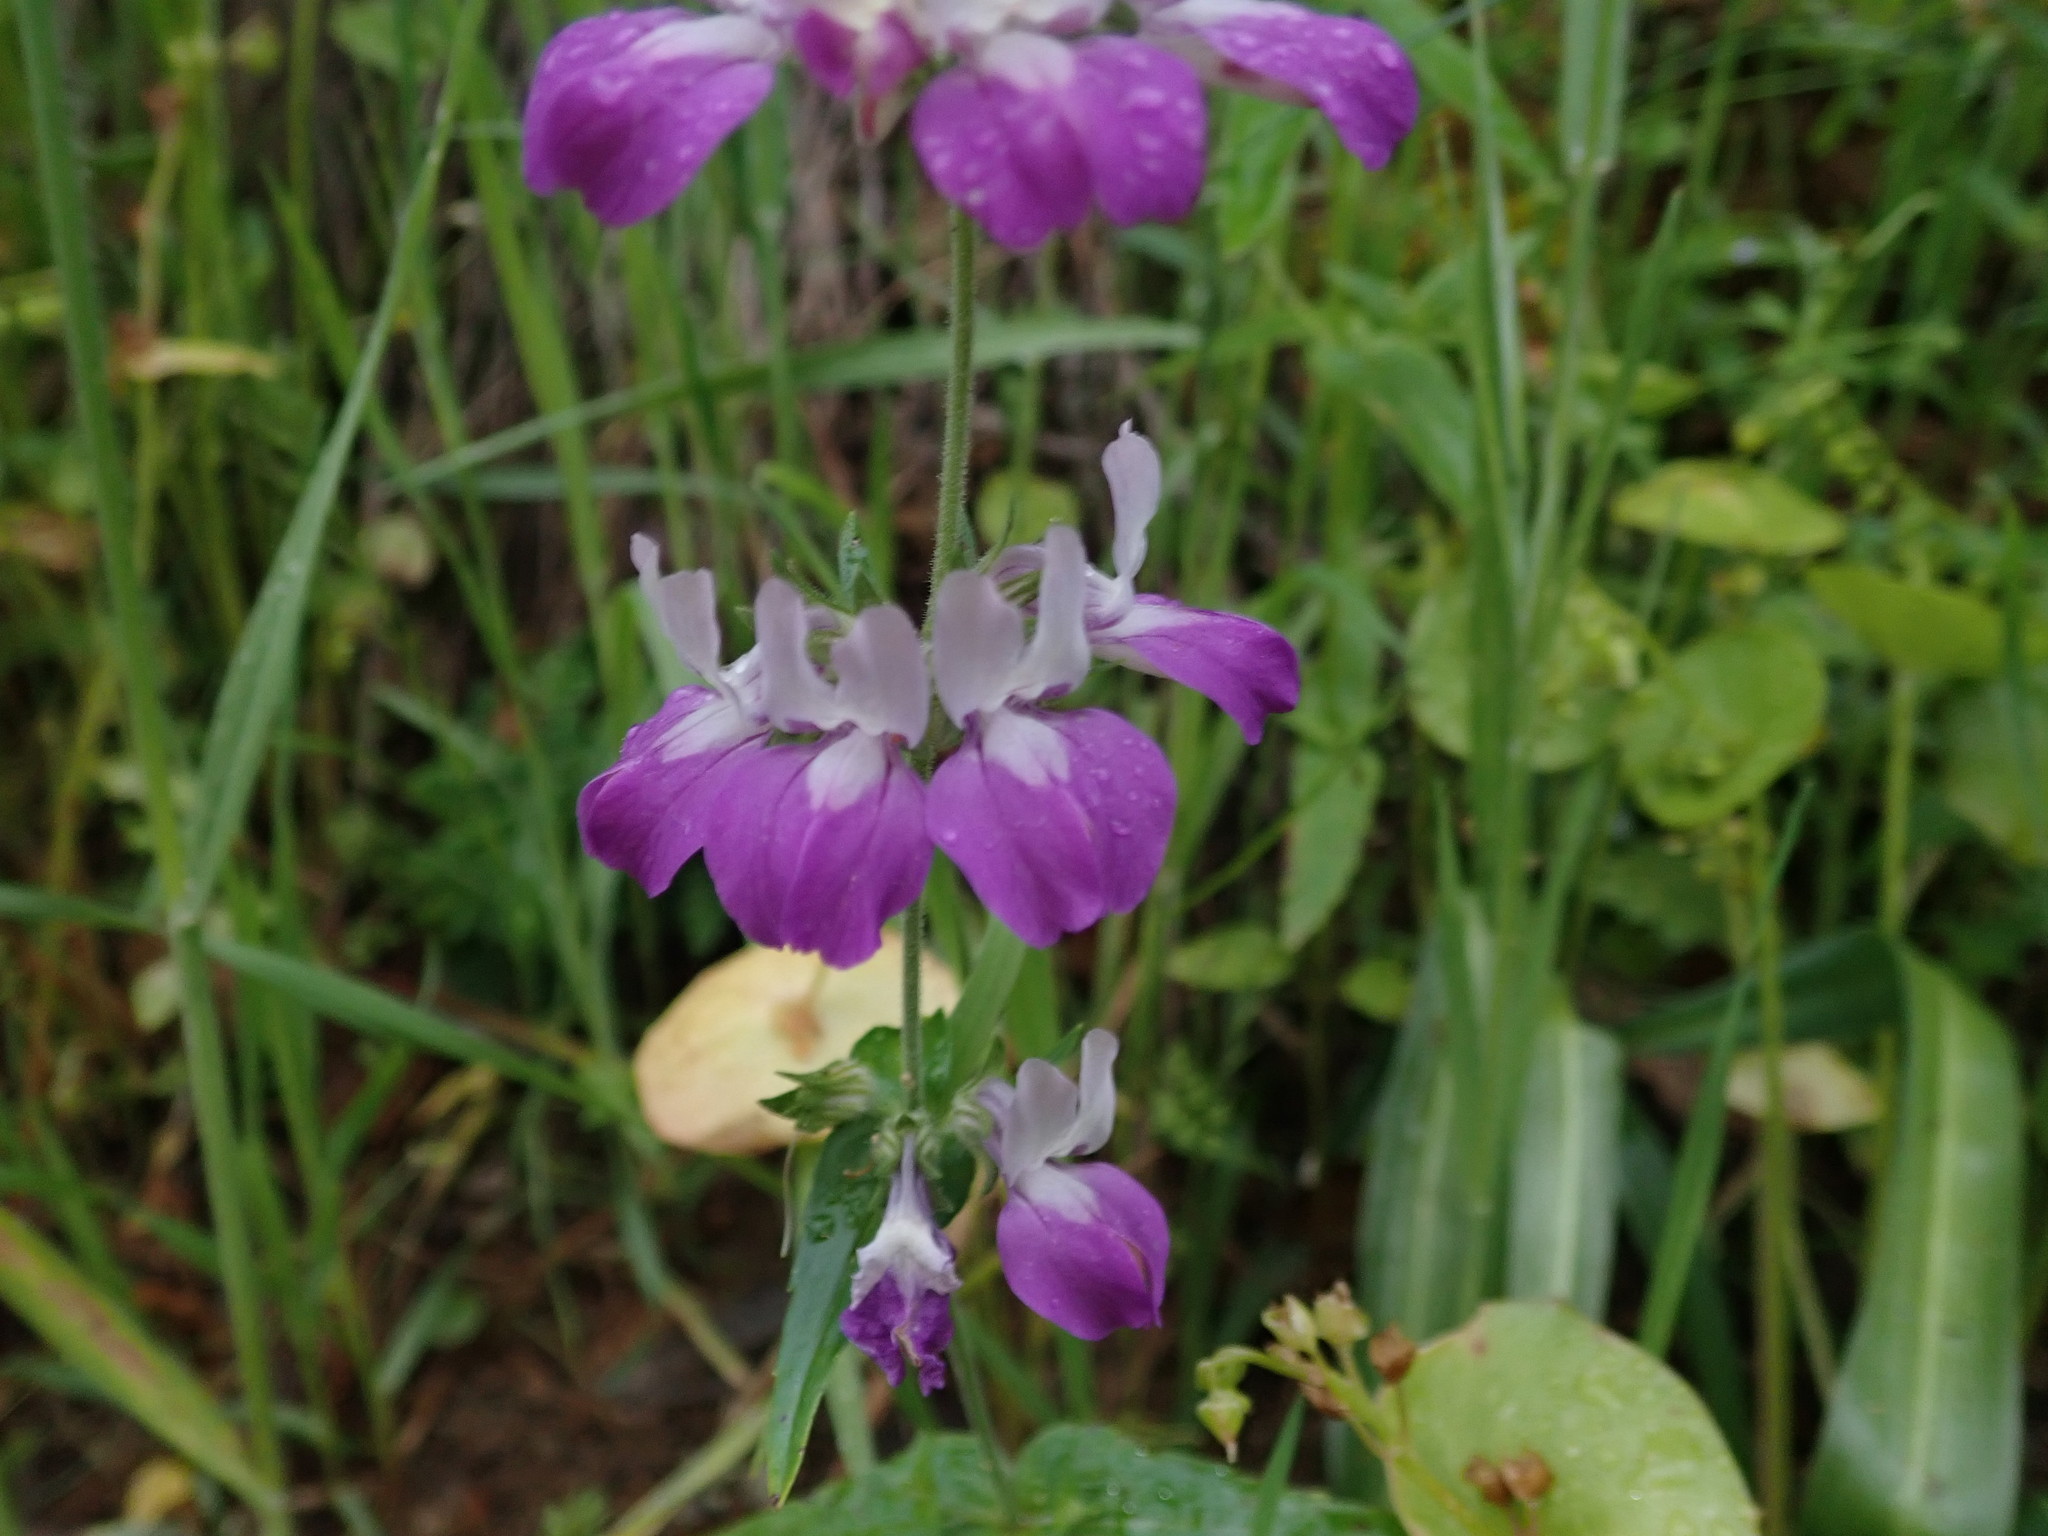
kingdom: Plantae
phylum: Tracheophyta
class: Magnoliopsida
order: Lamiales
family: Plantaginaceae
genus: Collinsia
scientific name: Collinsia heterophylla
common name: Chinese-houses
